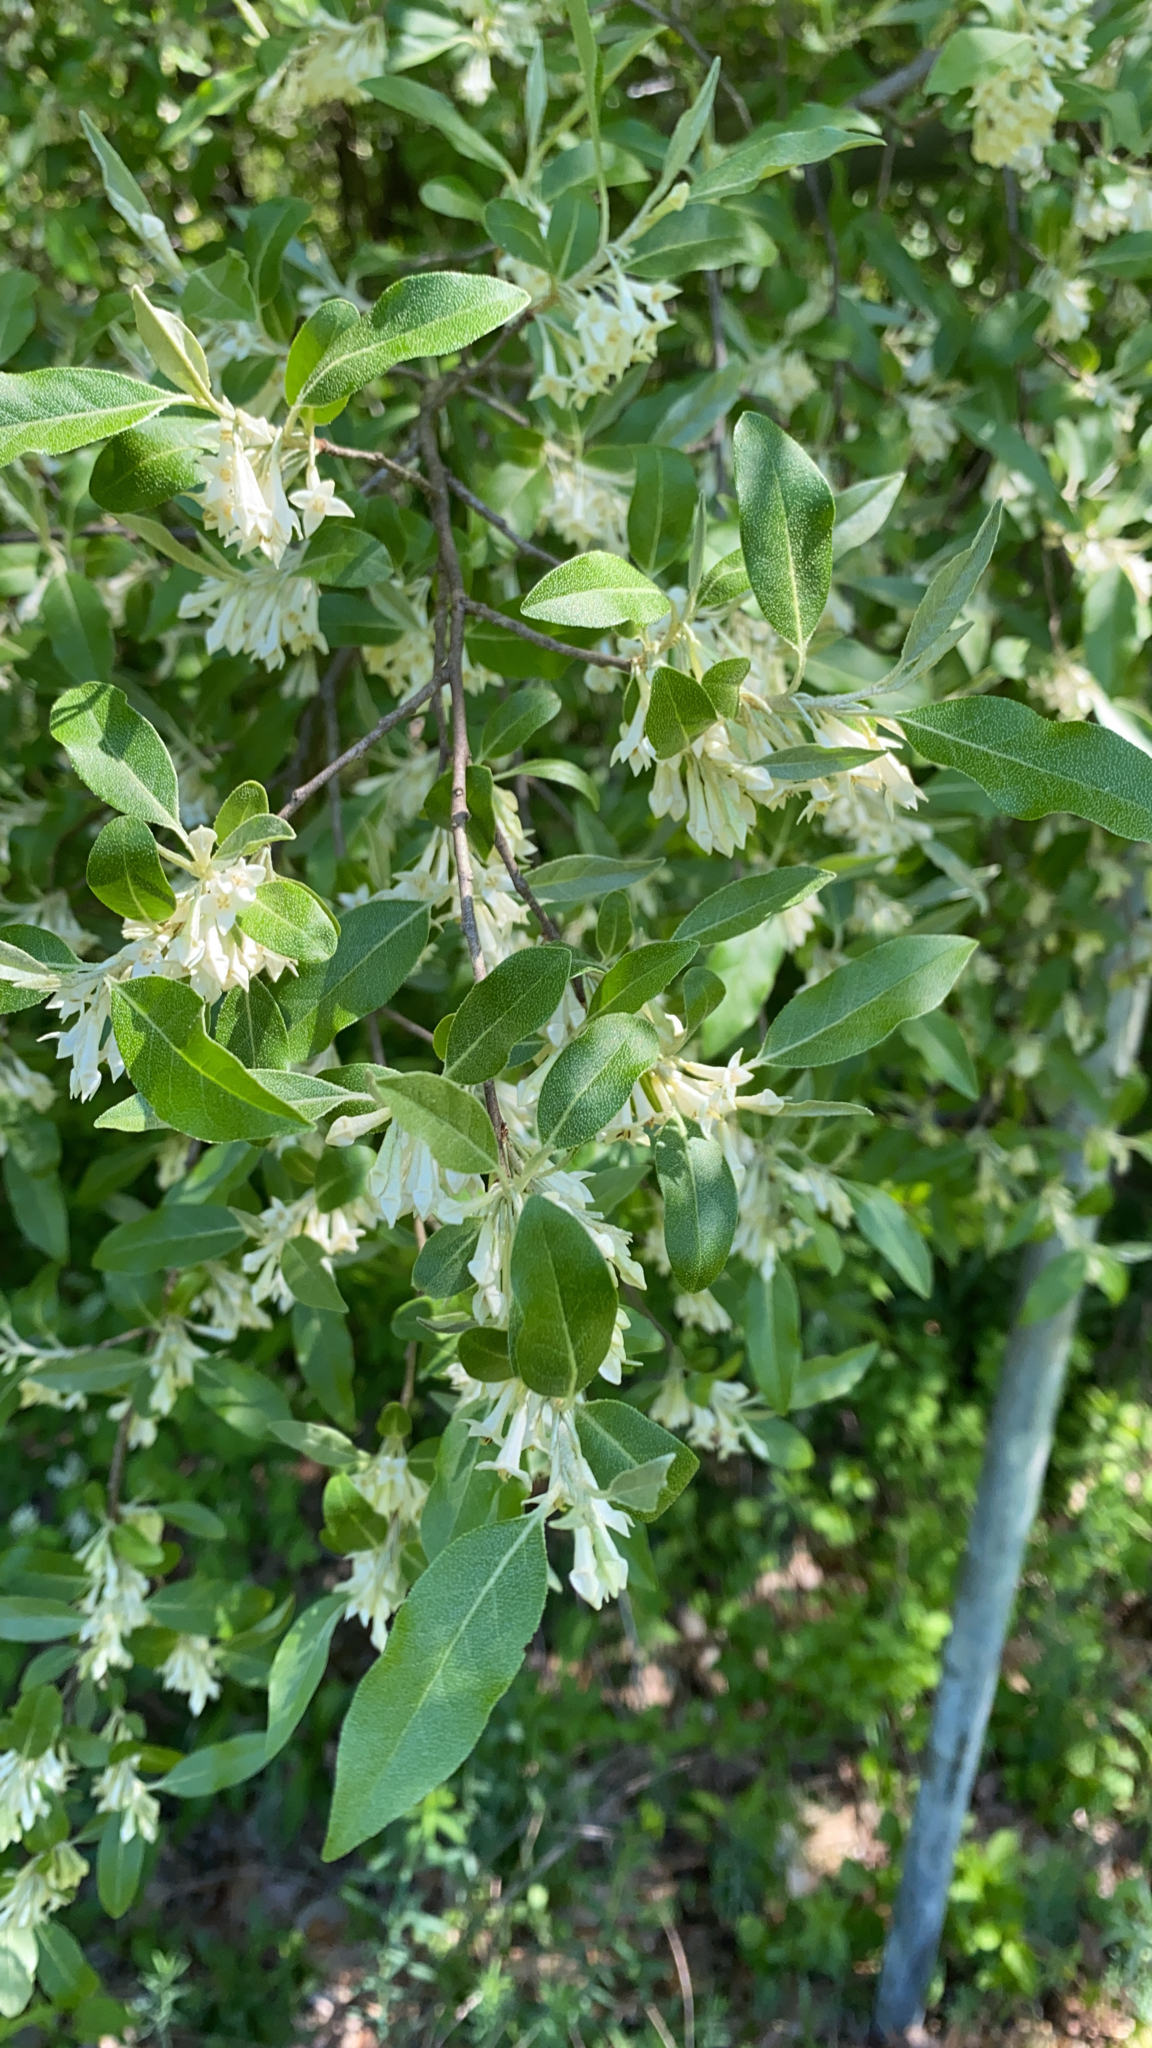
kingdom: Plantae
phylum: Tracheophyta
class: Magnoliopsida
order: Rosales
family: Elaeagnaceae
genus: Elaeagnus
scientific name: Elaeagnus umbellata
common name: Autumn olive
